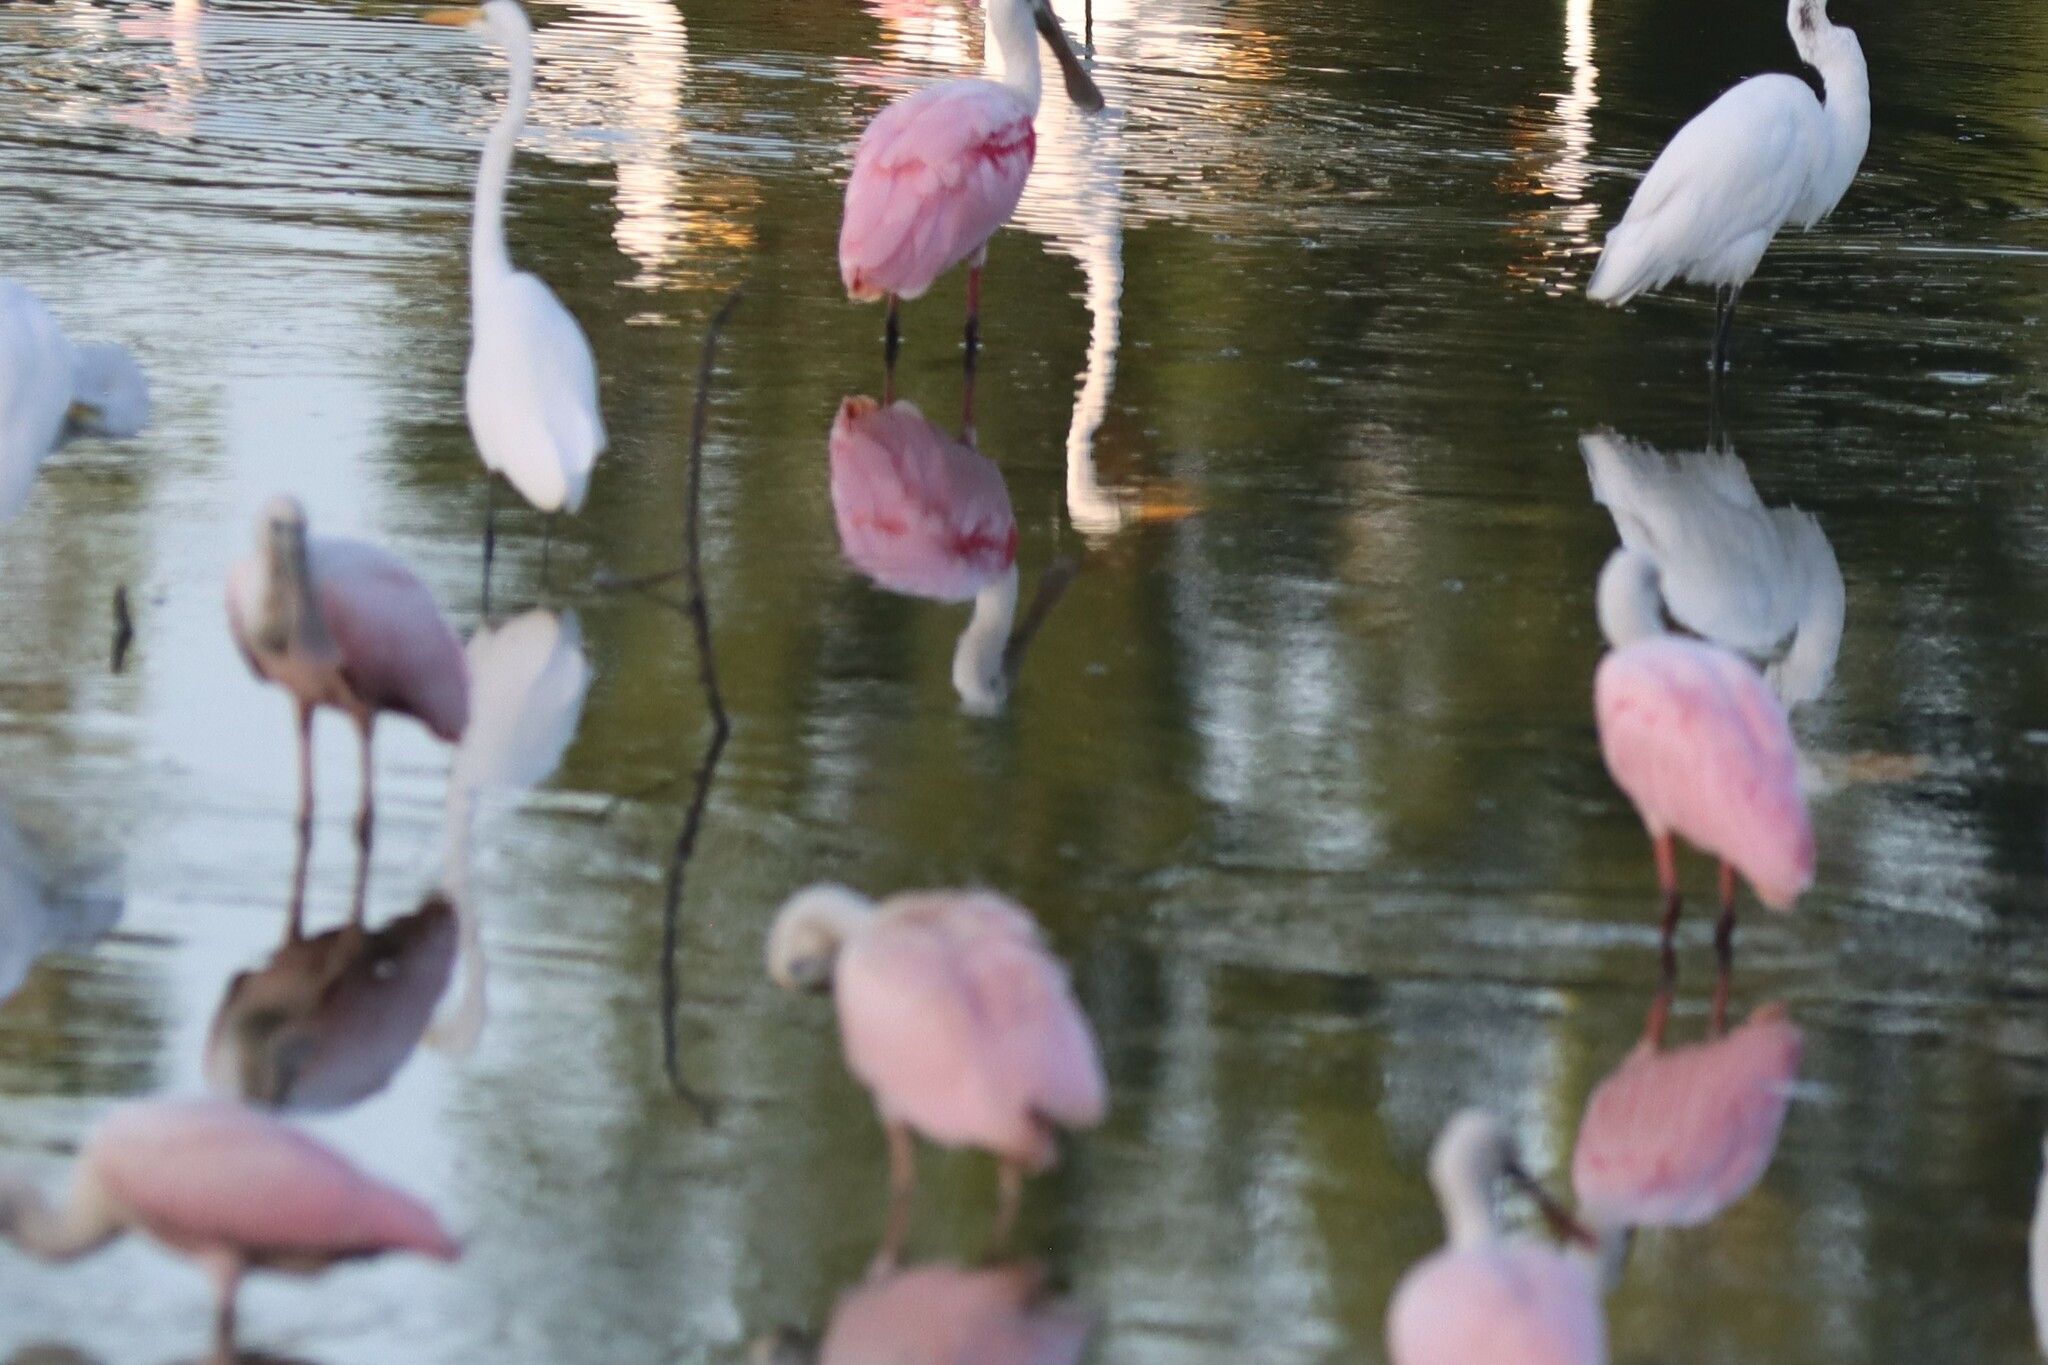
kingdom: Animalia
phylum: Chordata
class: Aves
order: Pelecaniformes
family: Threskiornithidae
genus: Platalea
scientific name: Platalea ajaja
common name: Roseate spoonbill
